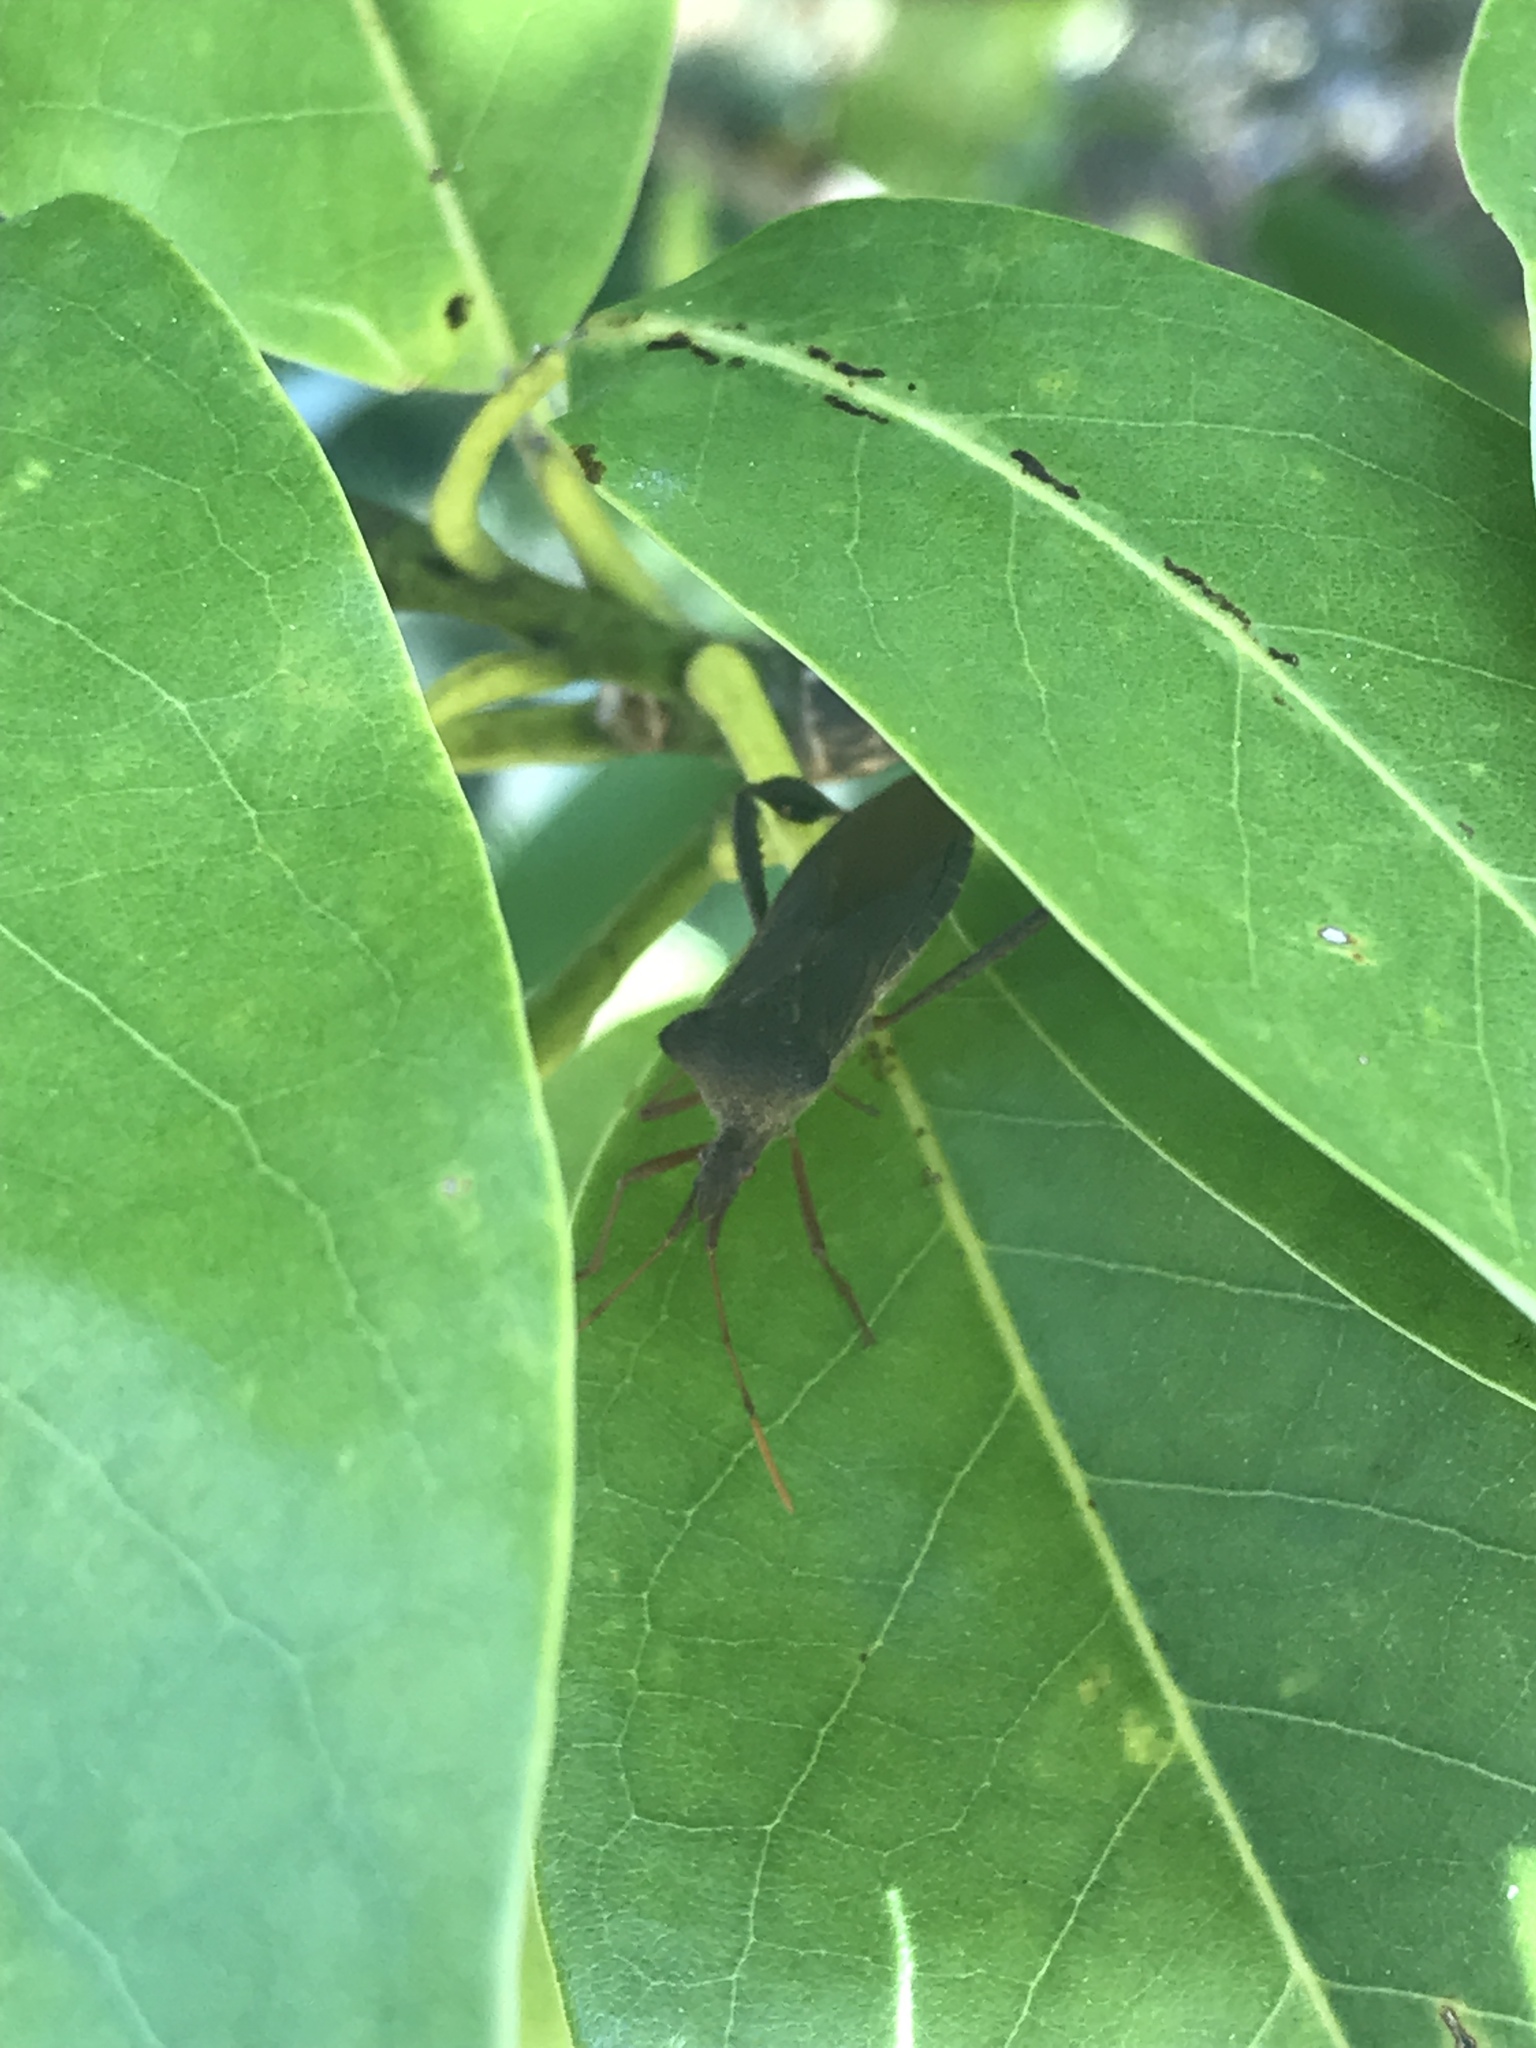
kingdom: Animalia
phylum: Arthropoda
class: Insecta
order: Hemiptera
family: Coreidae
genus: Leptoglossus
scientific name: Leptoglossus fulvicornis
